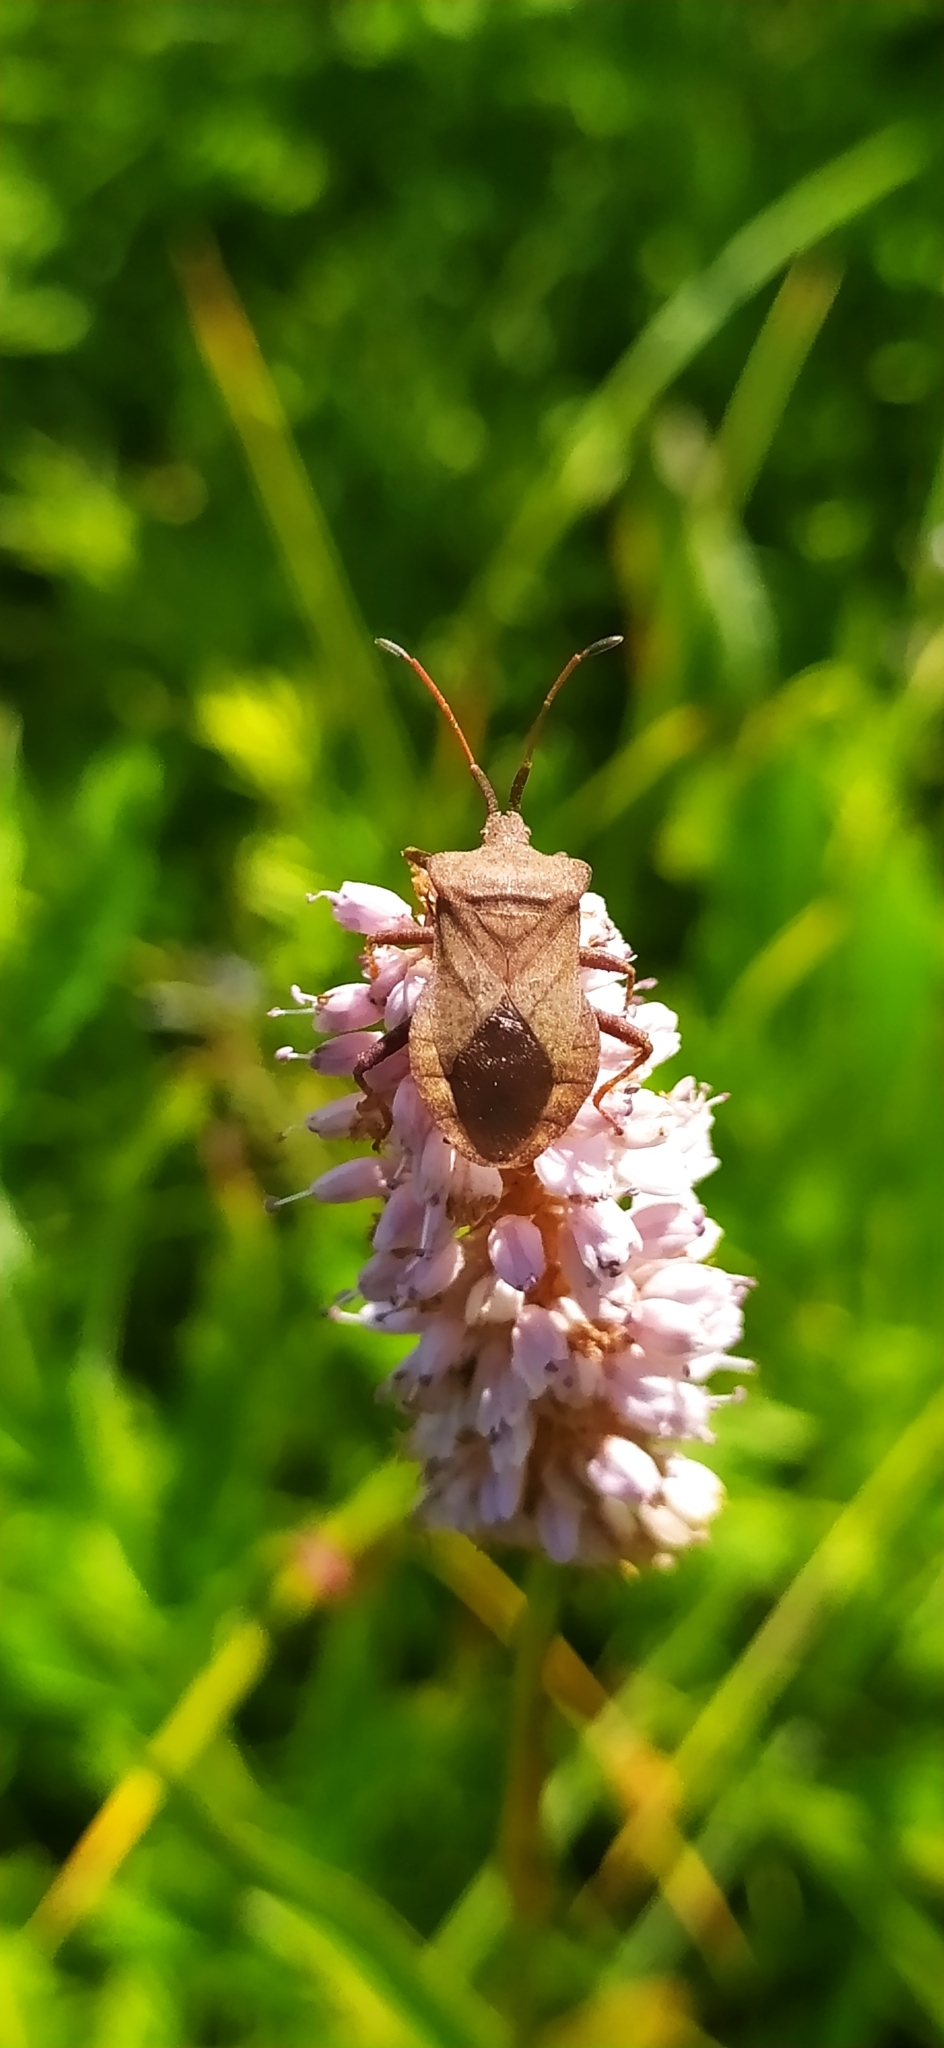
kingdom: Animalia
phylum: Arthropoda
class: Insecta
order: Hemiptera
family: Coreidae
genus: Coreus
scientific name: Coreus marginatus
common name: Dock bug
